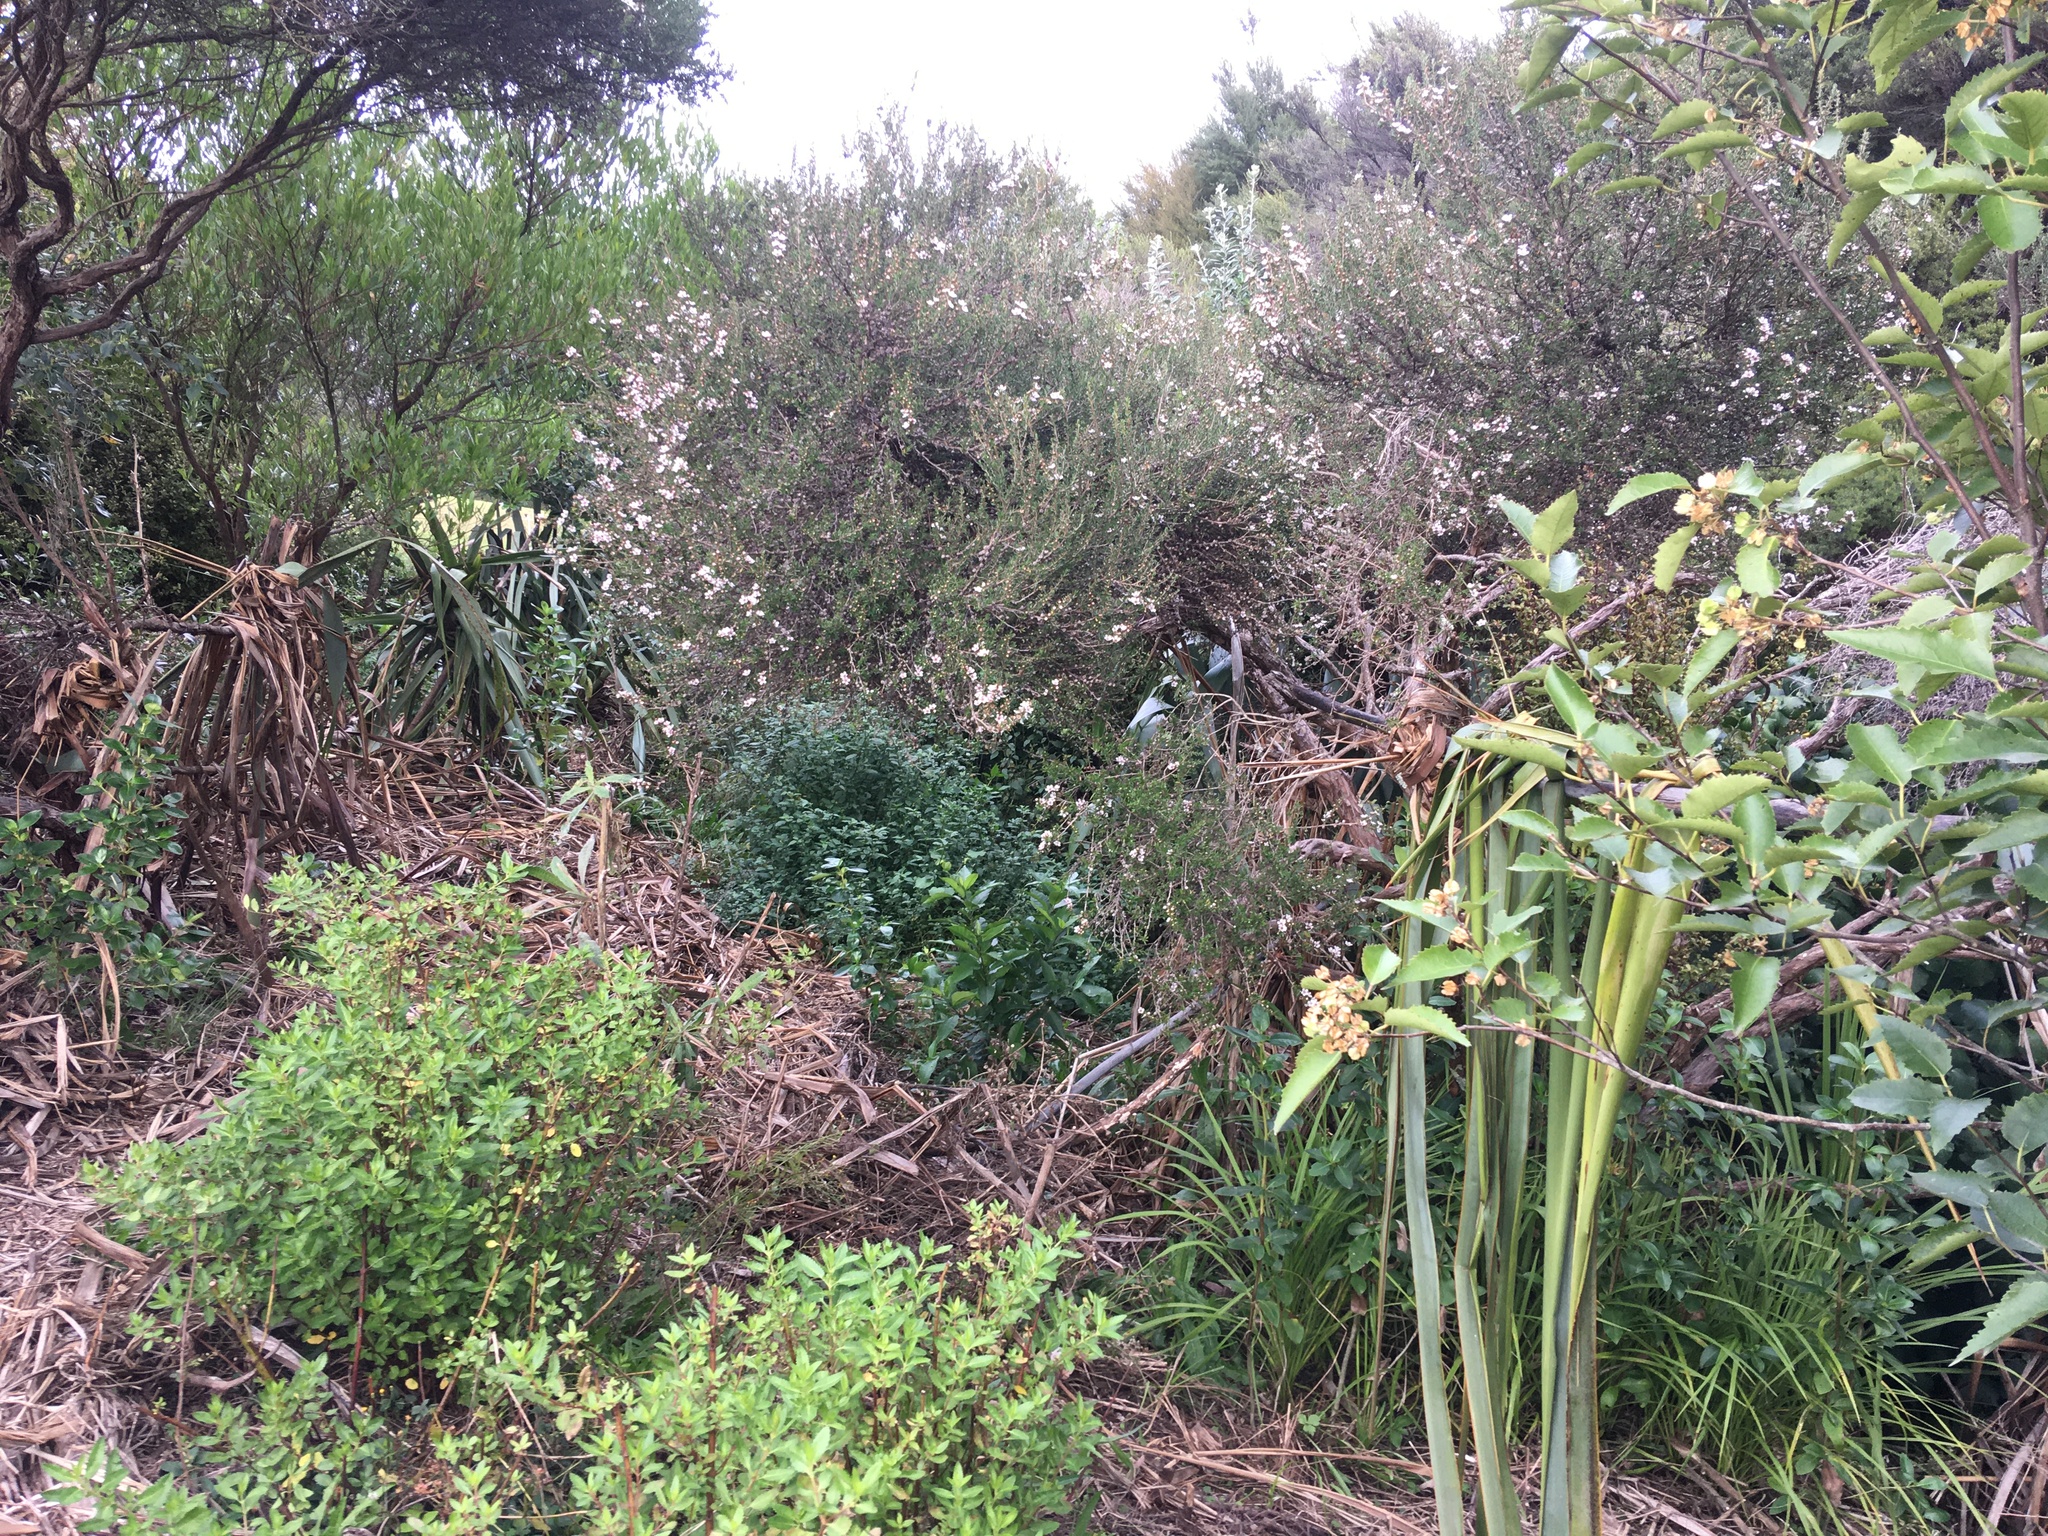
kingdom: Plantae
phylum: Tracheophyta
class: Magnoliopsida
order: Myrtales
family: Myrtaceae
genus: Leptospermum
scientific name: Leptospermum scoparium
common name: Broom tea-tree
